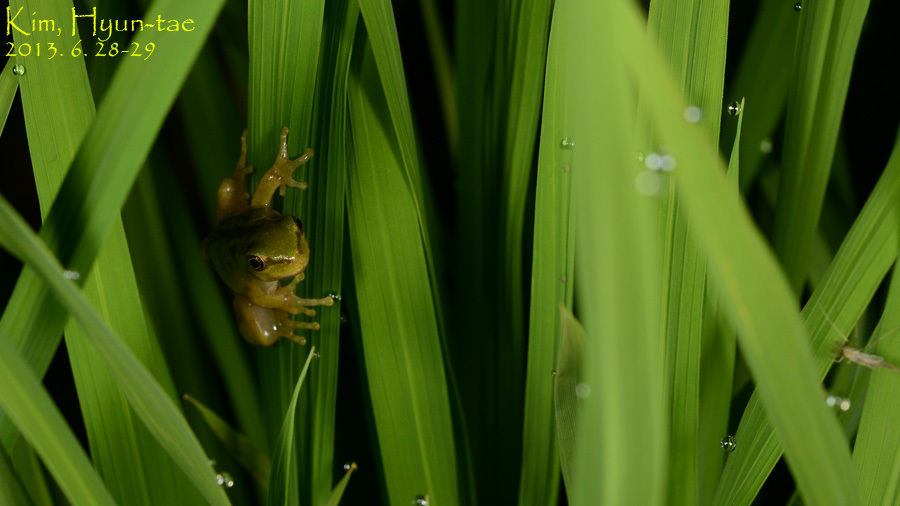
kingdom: Animalia
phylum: Chordata
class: Amphibia
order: Anura
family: Hylidae
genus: Dryophytes
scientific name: Dryophytes immaculatus
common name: North china treefrog
